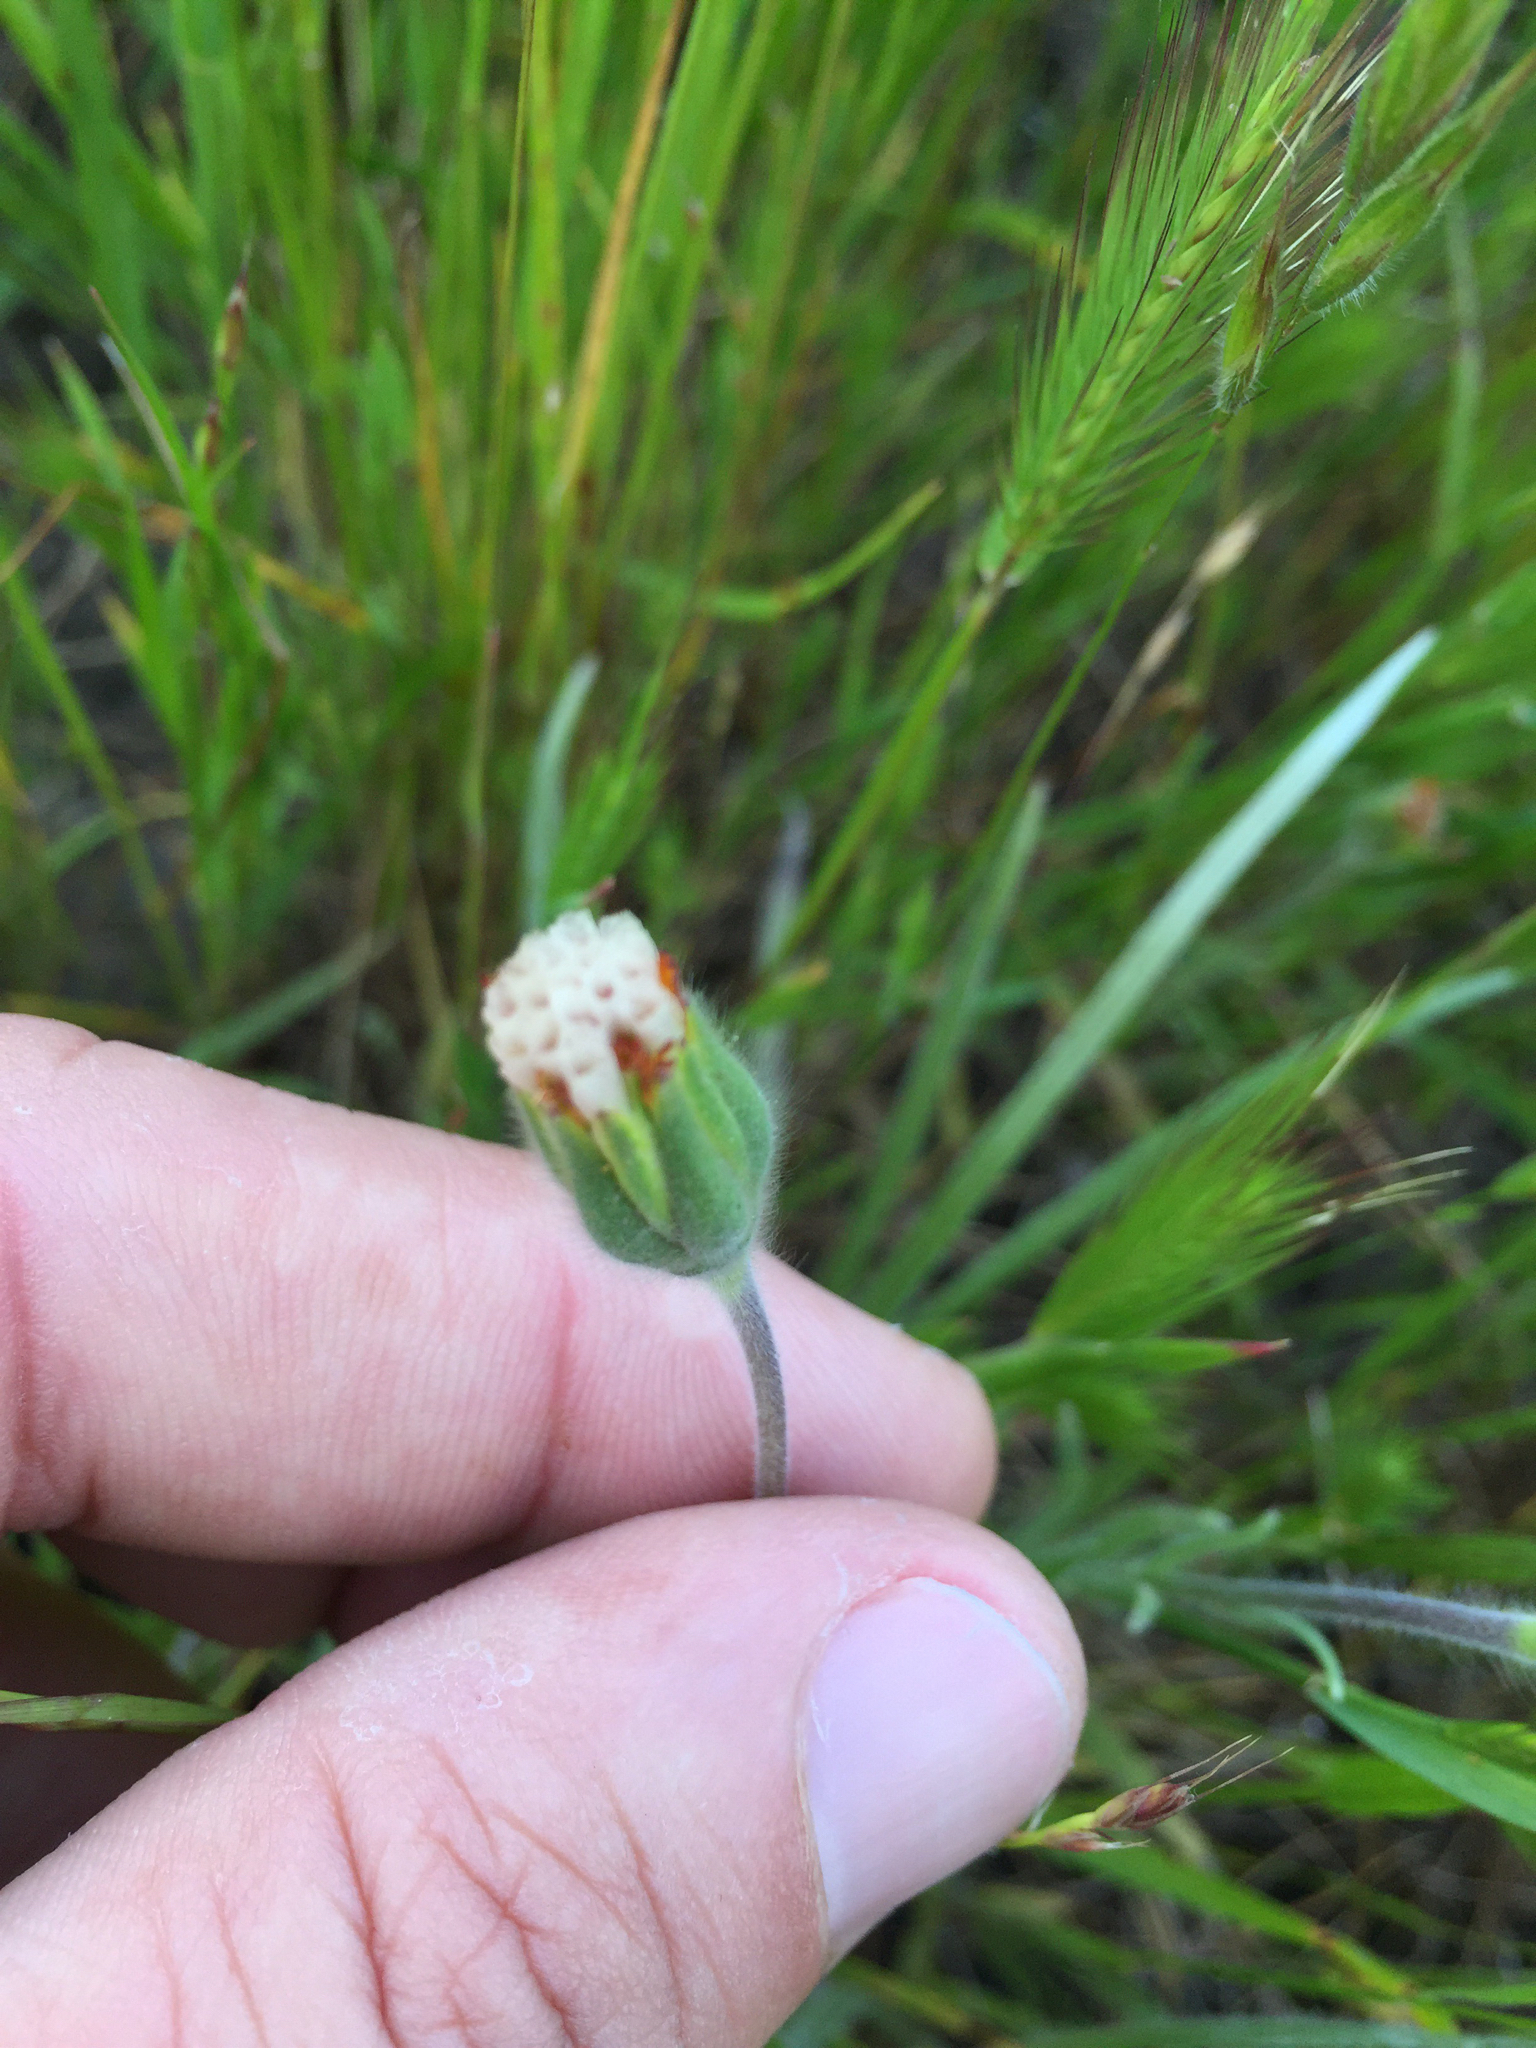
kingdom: Plantae
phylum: Tracheophyta
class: Magnoliopsida
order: Asterales
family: Asteraceae
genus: Achyrachaena
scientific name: Achyrachaena mollis
